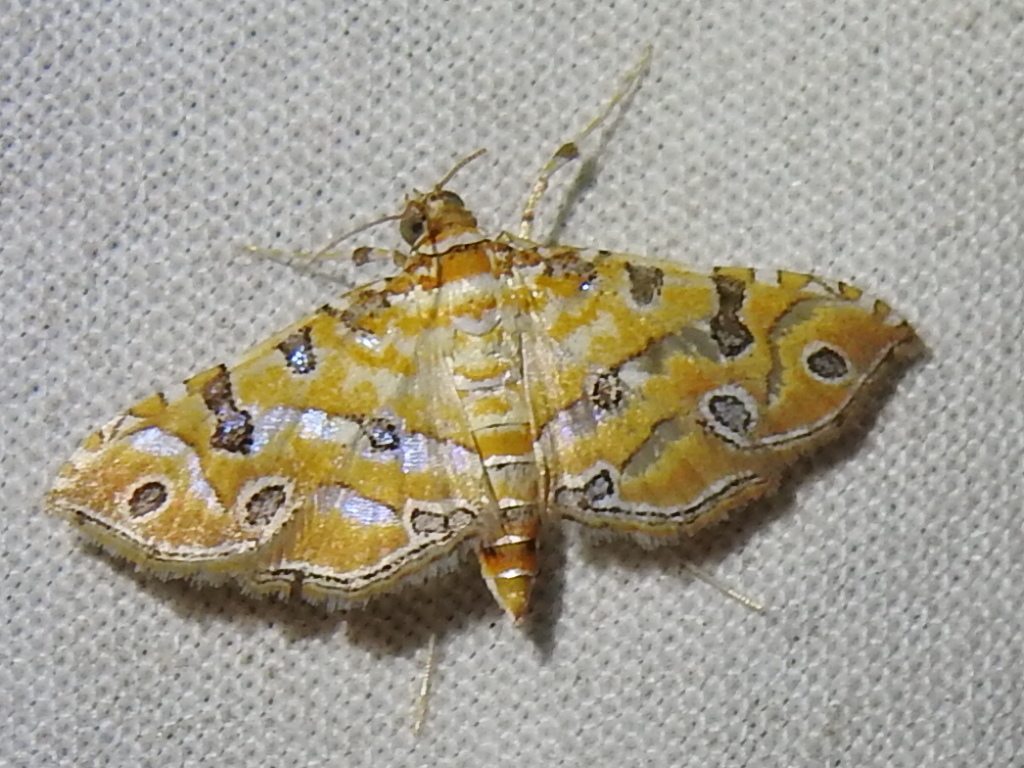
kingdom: Animalia
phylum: Arthropoda
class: Insecta
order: Lepidoptera
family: Crambidae
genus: Ommatospila
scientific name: Ommatospila narcaeusalis
